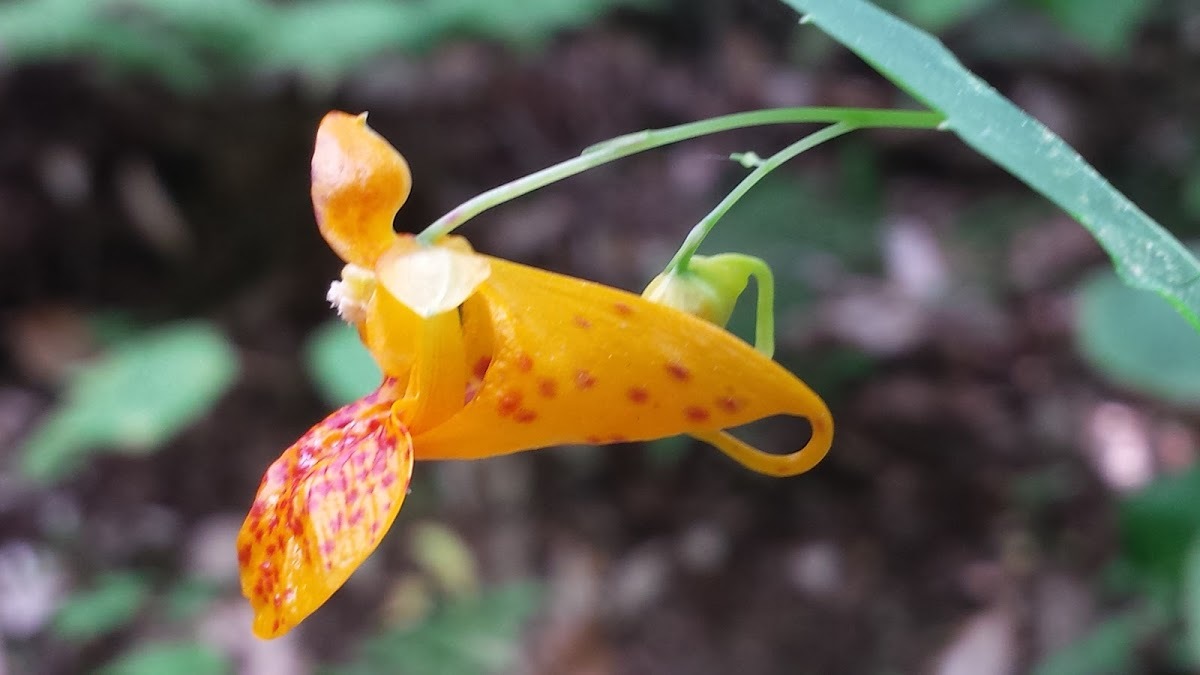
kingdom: Plantae
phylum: Tracheophyta
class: Magnoliopsida
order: Ericales
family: Balsaminaceae
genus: Impatiens
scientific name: Impatiens capensis
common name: Orange balsam
